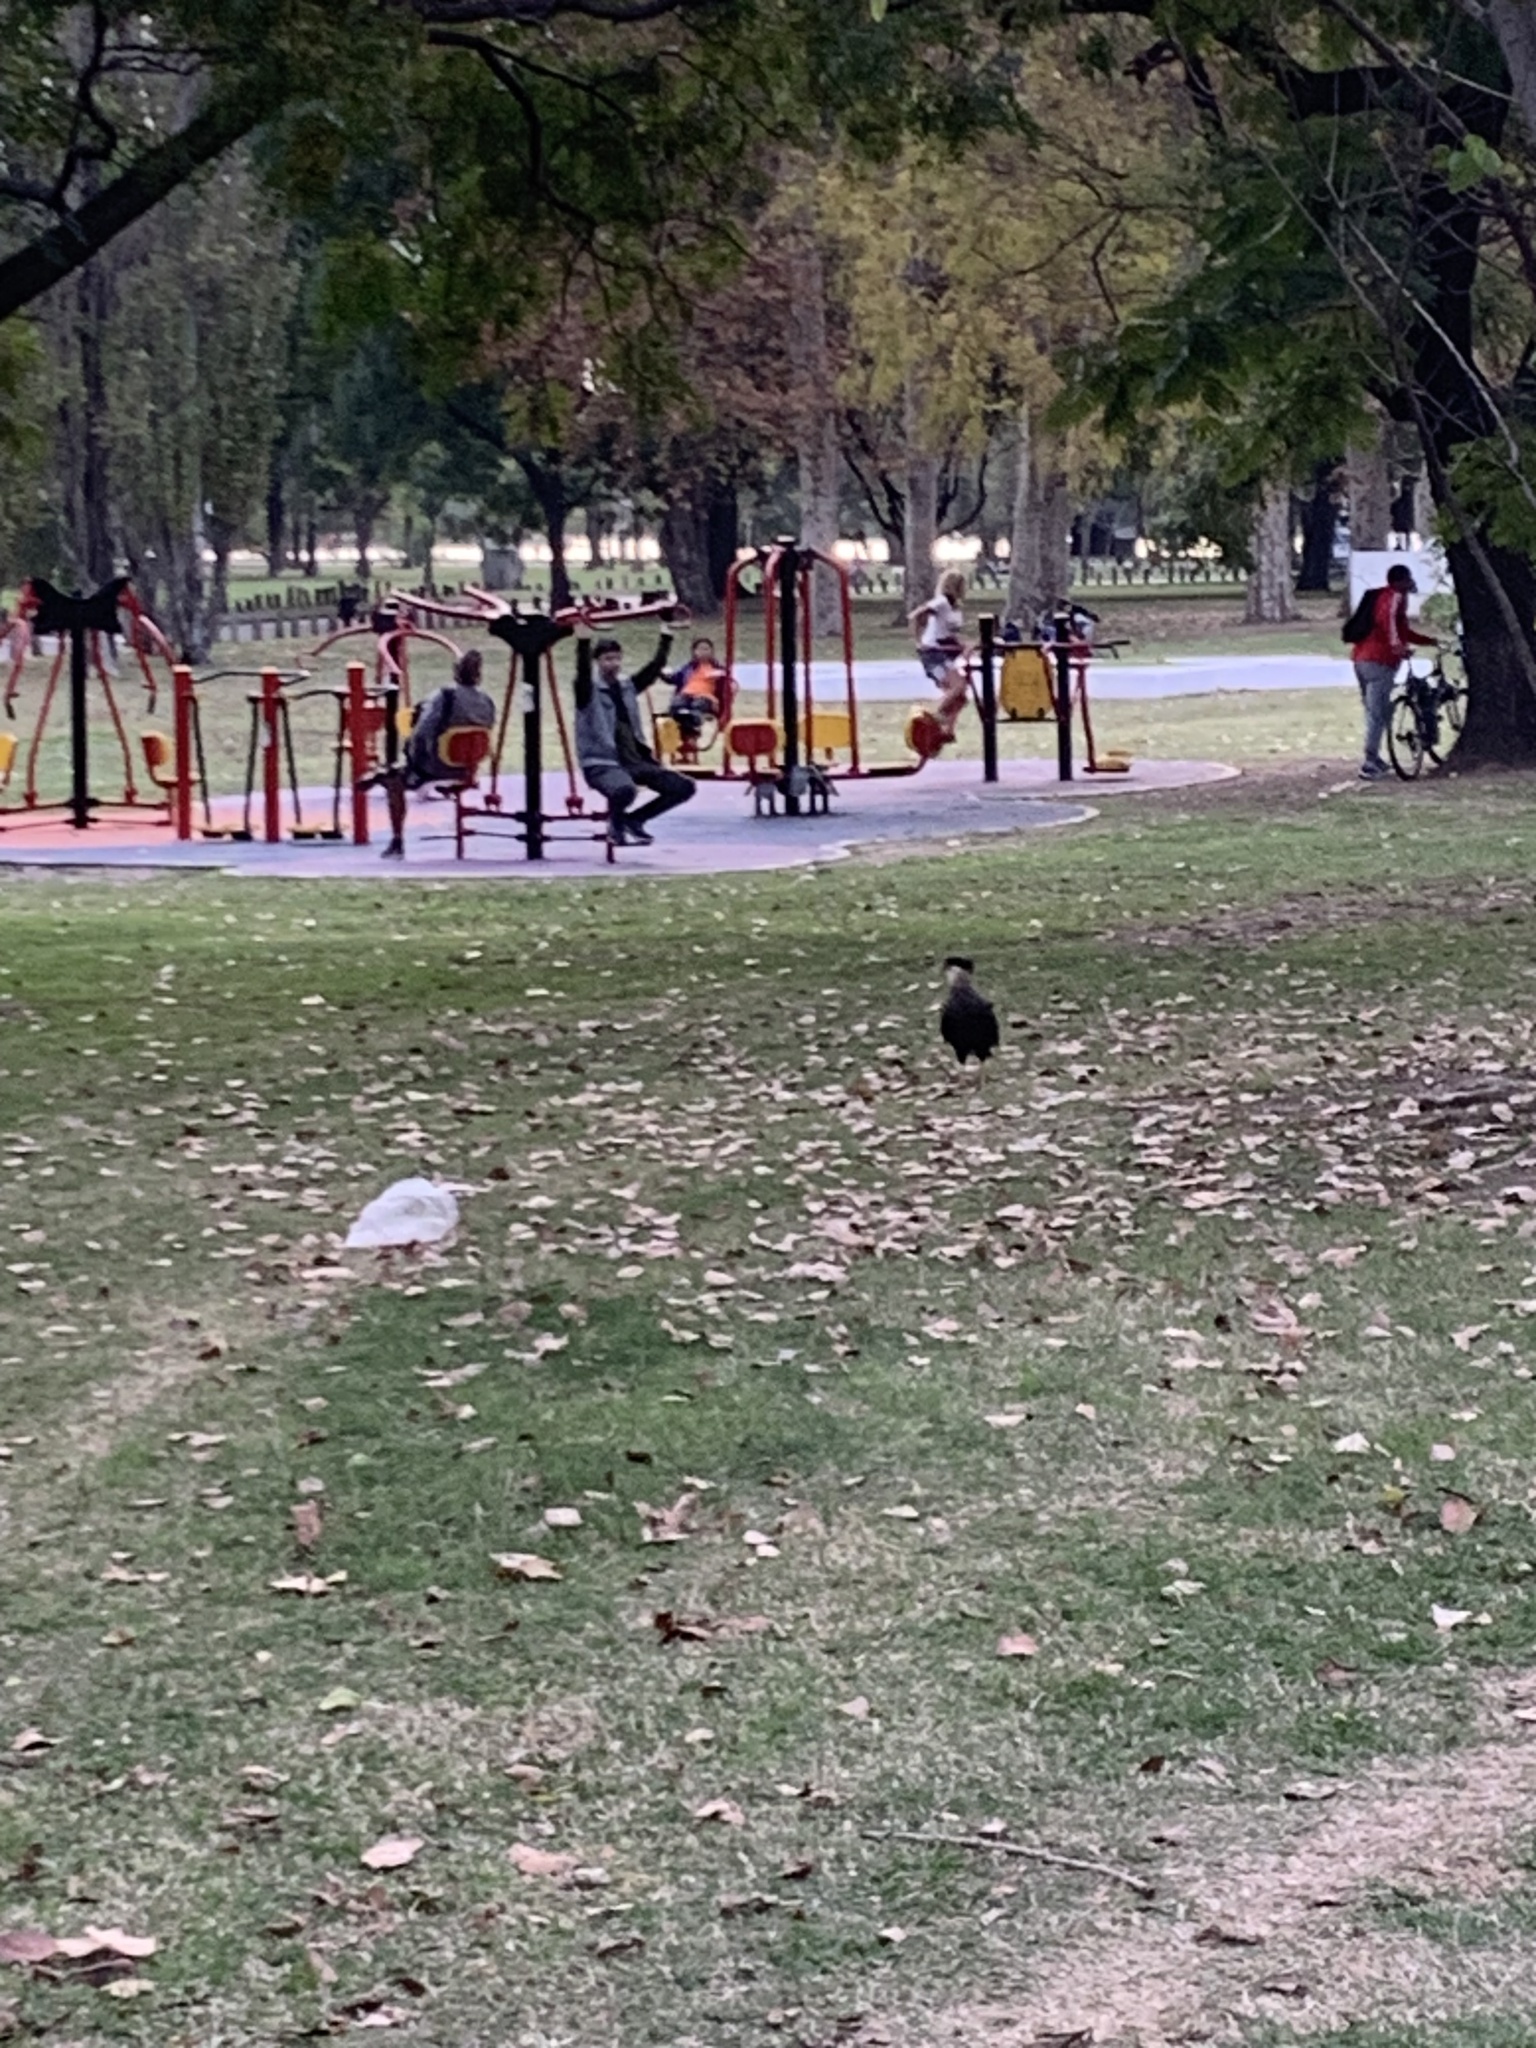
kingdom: Animalia
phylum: Chordata
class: Aves
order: Falconiformes
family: Falconidae
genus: Caracara
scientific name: Caracara plancus
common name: Southern caracara
